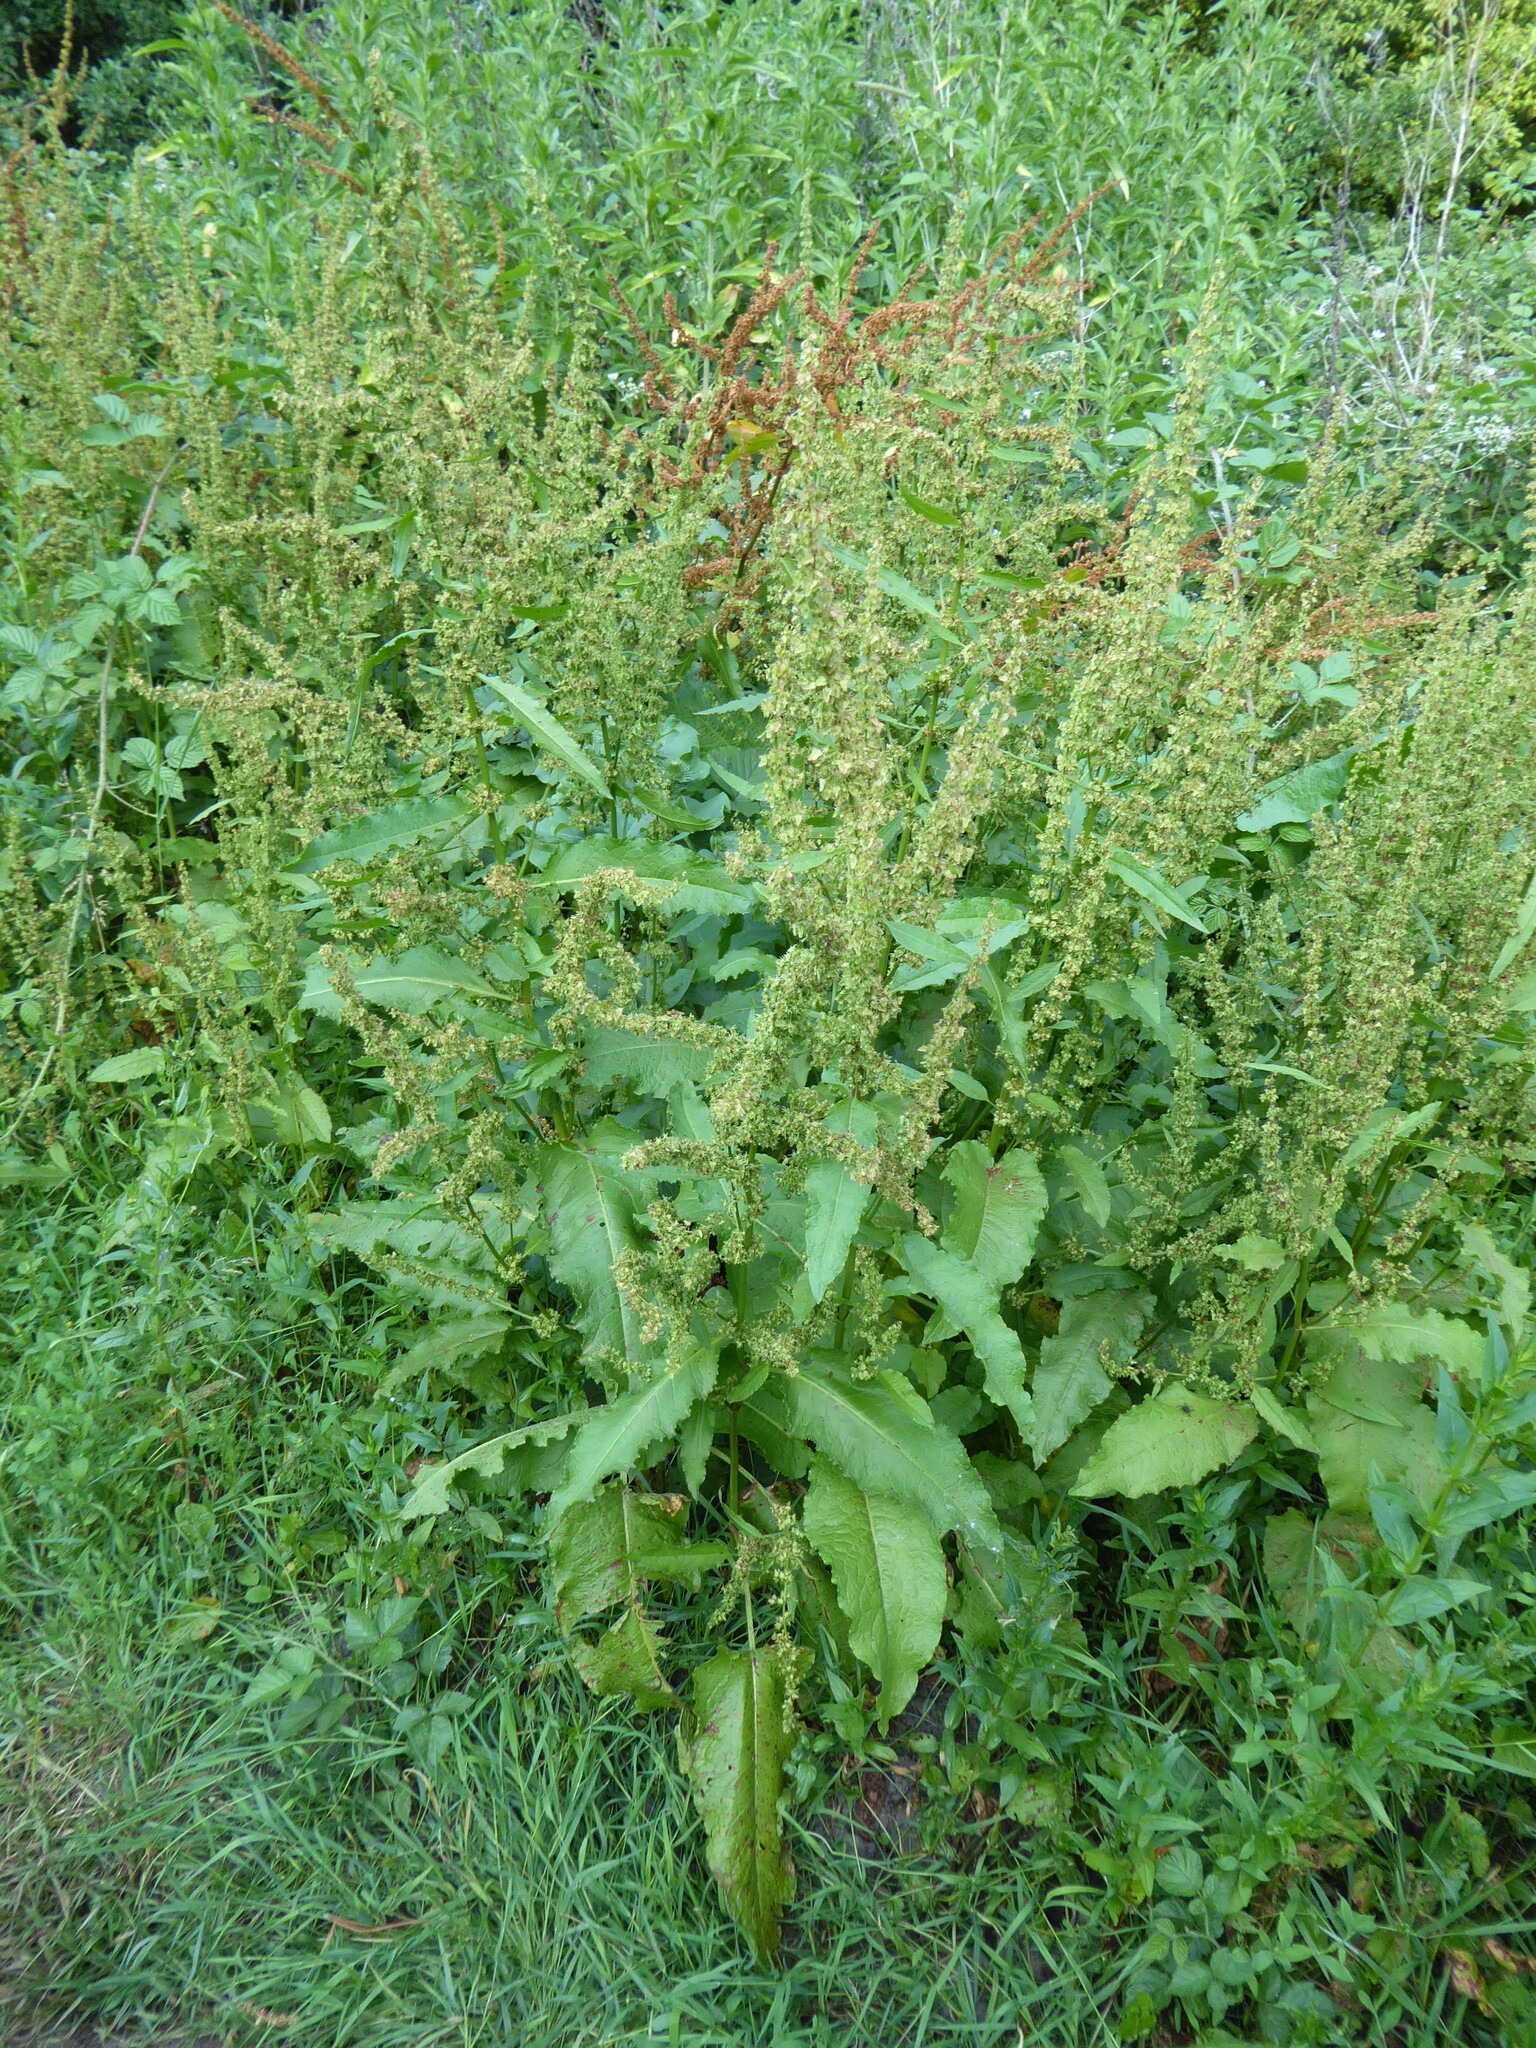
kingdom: Plantae
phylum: Tracheophyta
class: Magnoliopsida
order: Caryophyllales
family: Polygonaceae
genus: Rumex
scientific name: Rumex obtusifolius
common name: Bitter dock
